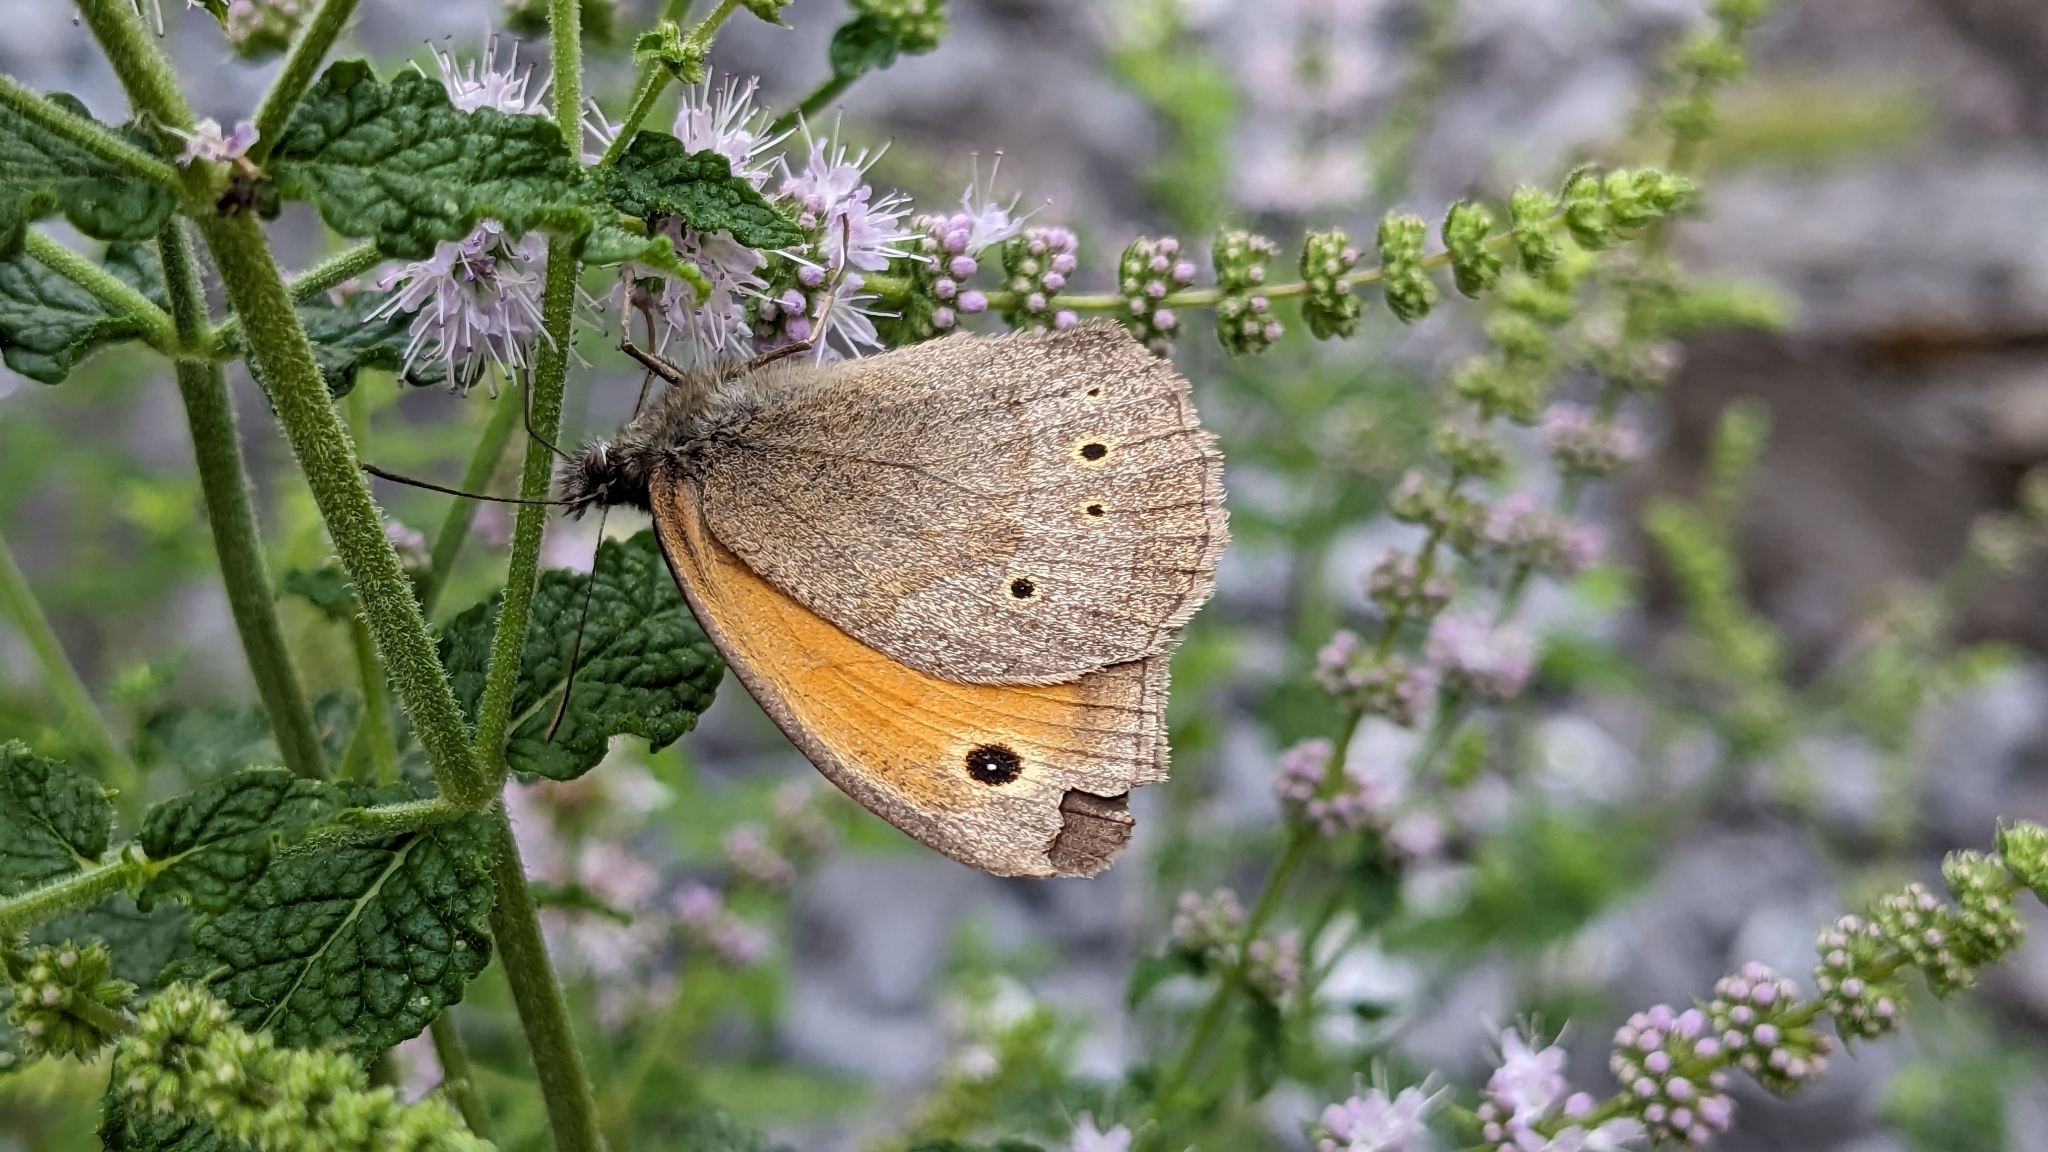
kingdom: Animalia
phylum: Arthropoda
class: Insecta
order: Lepidoptera
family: Nymphalidae
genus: Maniola
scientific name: Maniola jurtina
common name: Meadow brown
